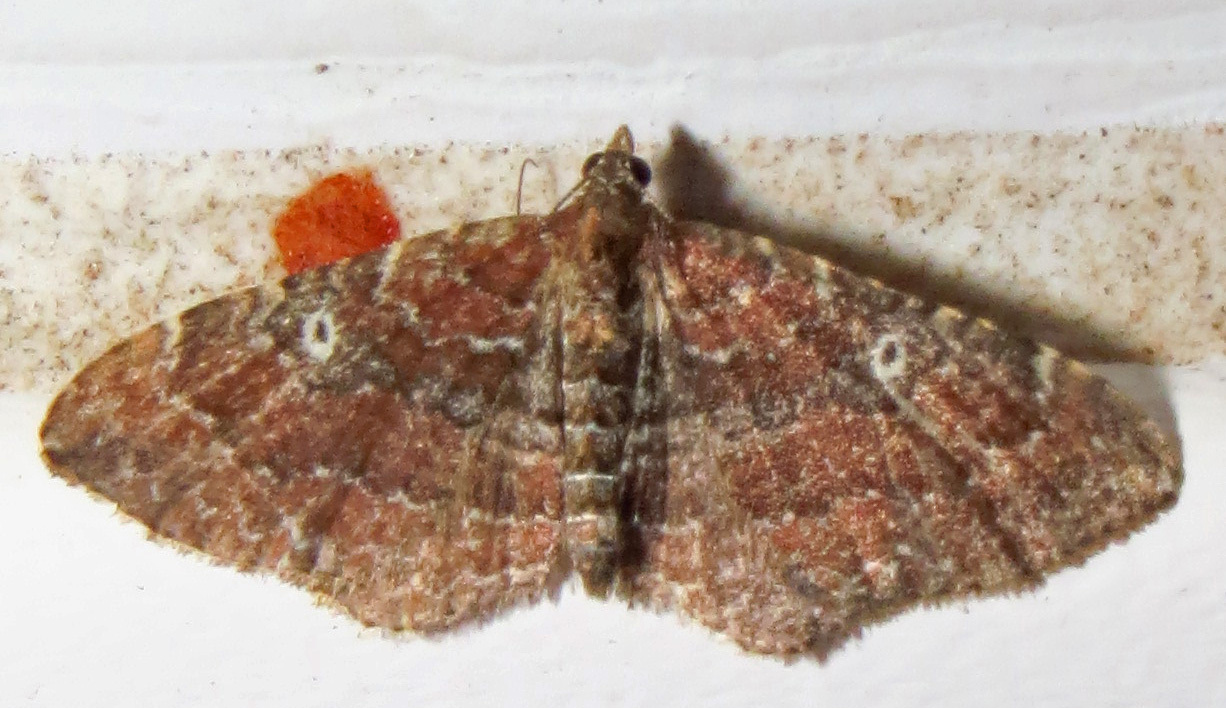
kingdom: Animalia
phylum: Arthropoda
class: Insecta
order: Lepidoptera
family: Geometridae
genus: Orthonama
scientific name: Orthonama obstipata
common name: The gem
